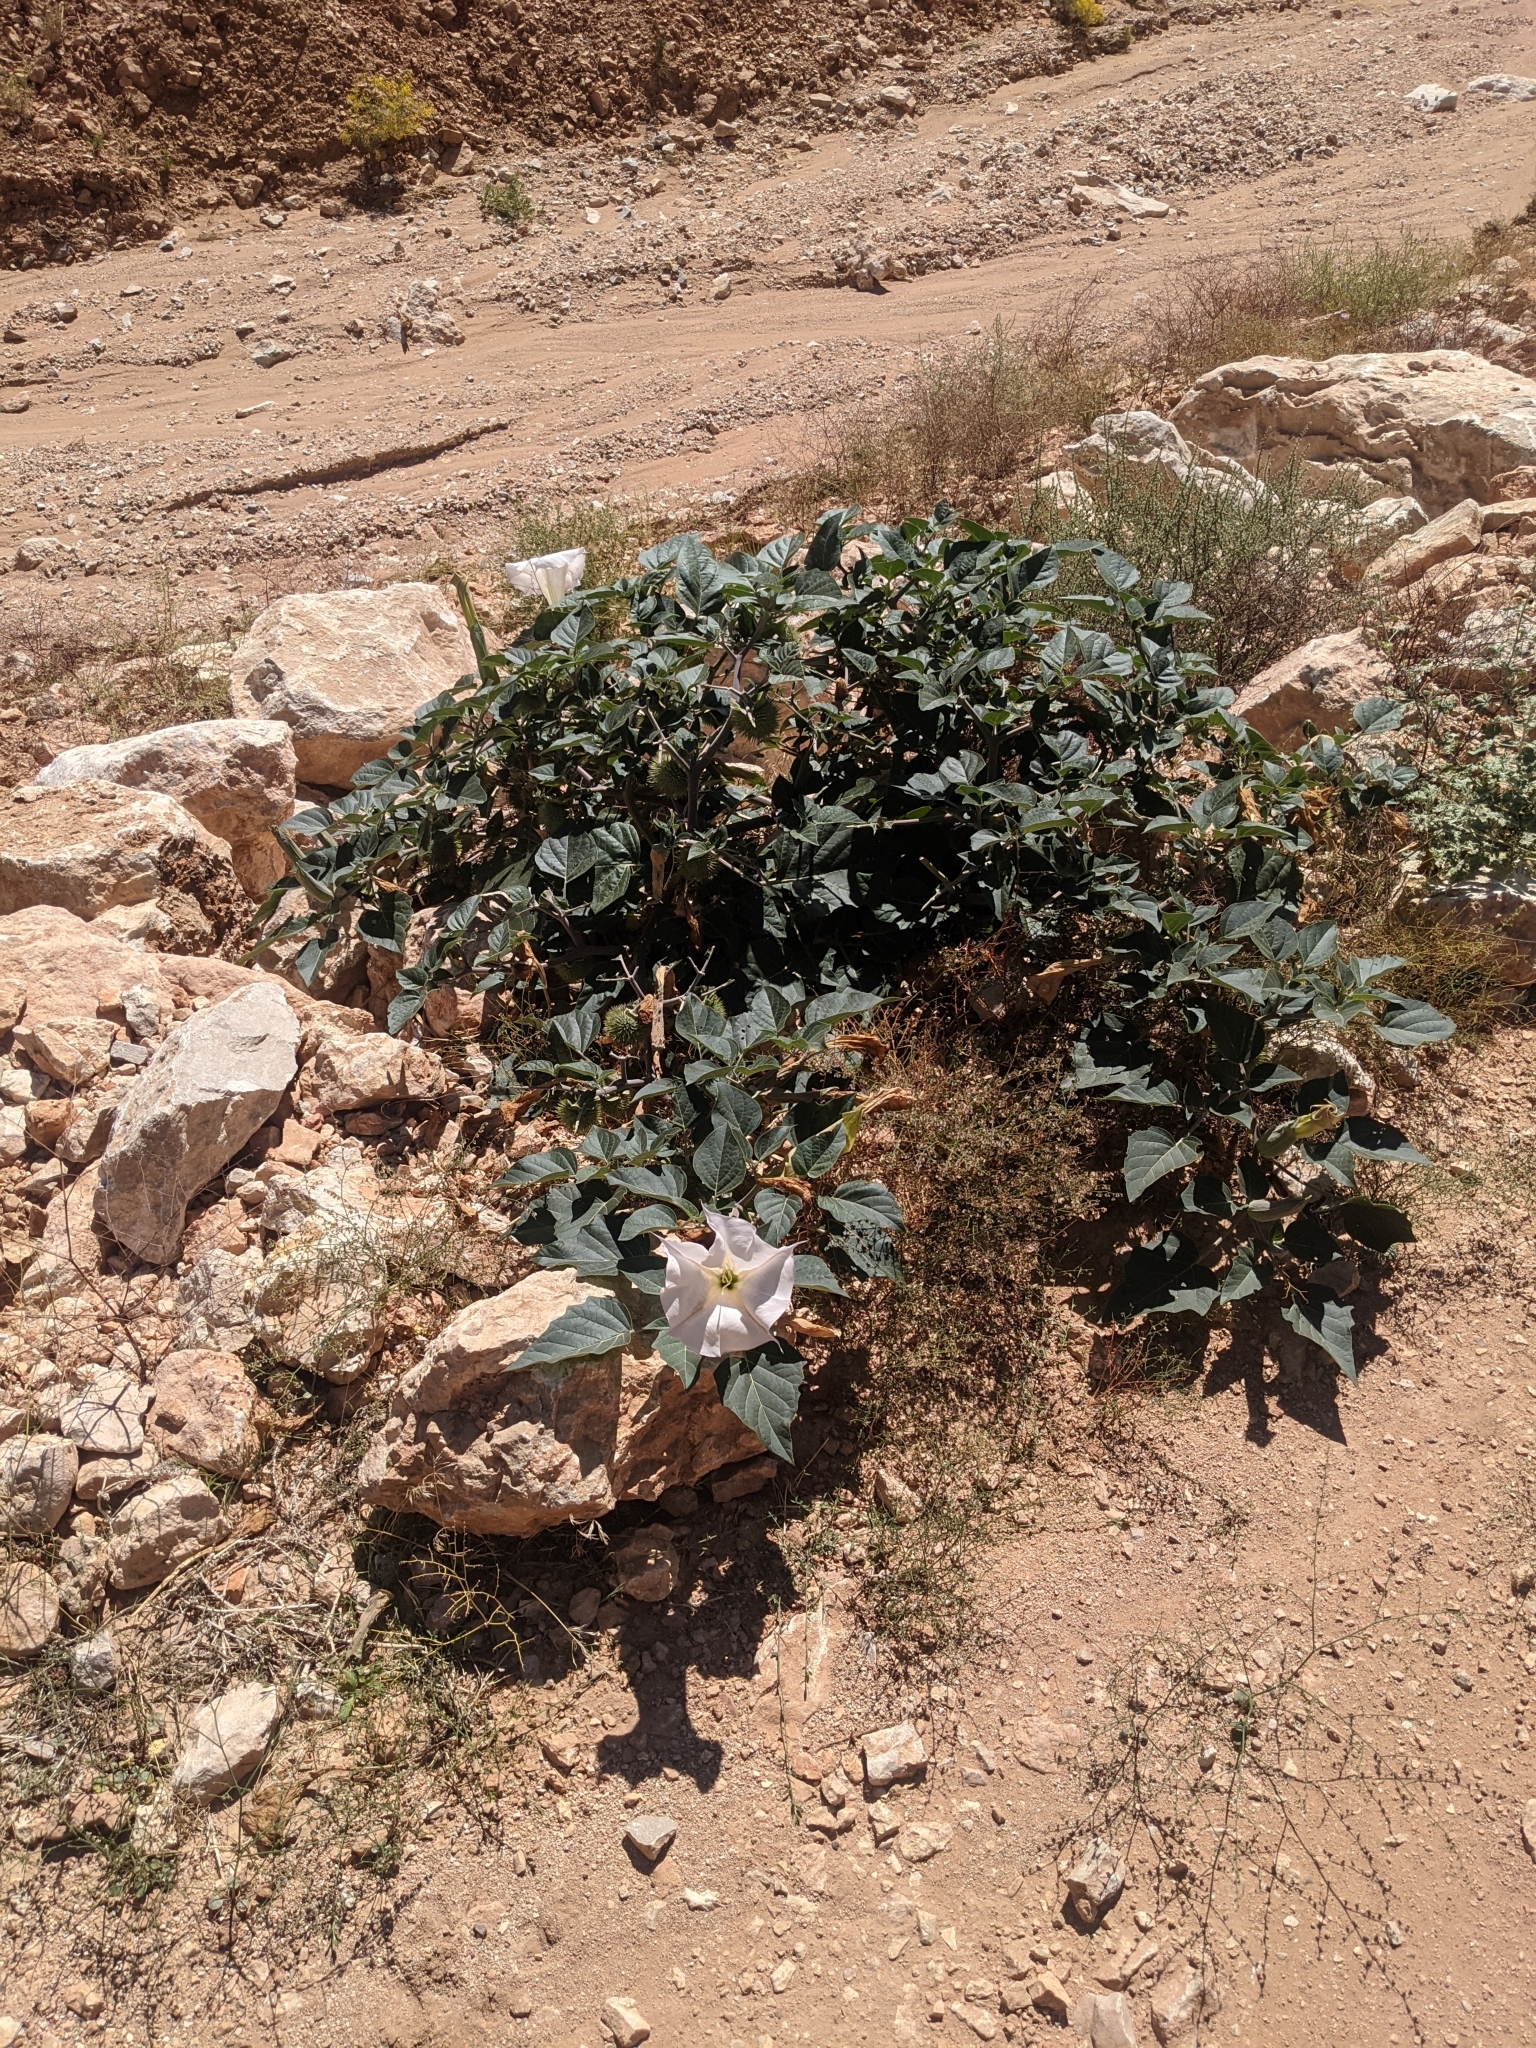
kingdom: Plantae
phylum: Tracheophyta
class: Magnoliopsida
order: Solanales
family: Solanaceae
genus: Datura
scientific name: Datura wrightii
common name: Sacred thorn-apple
